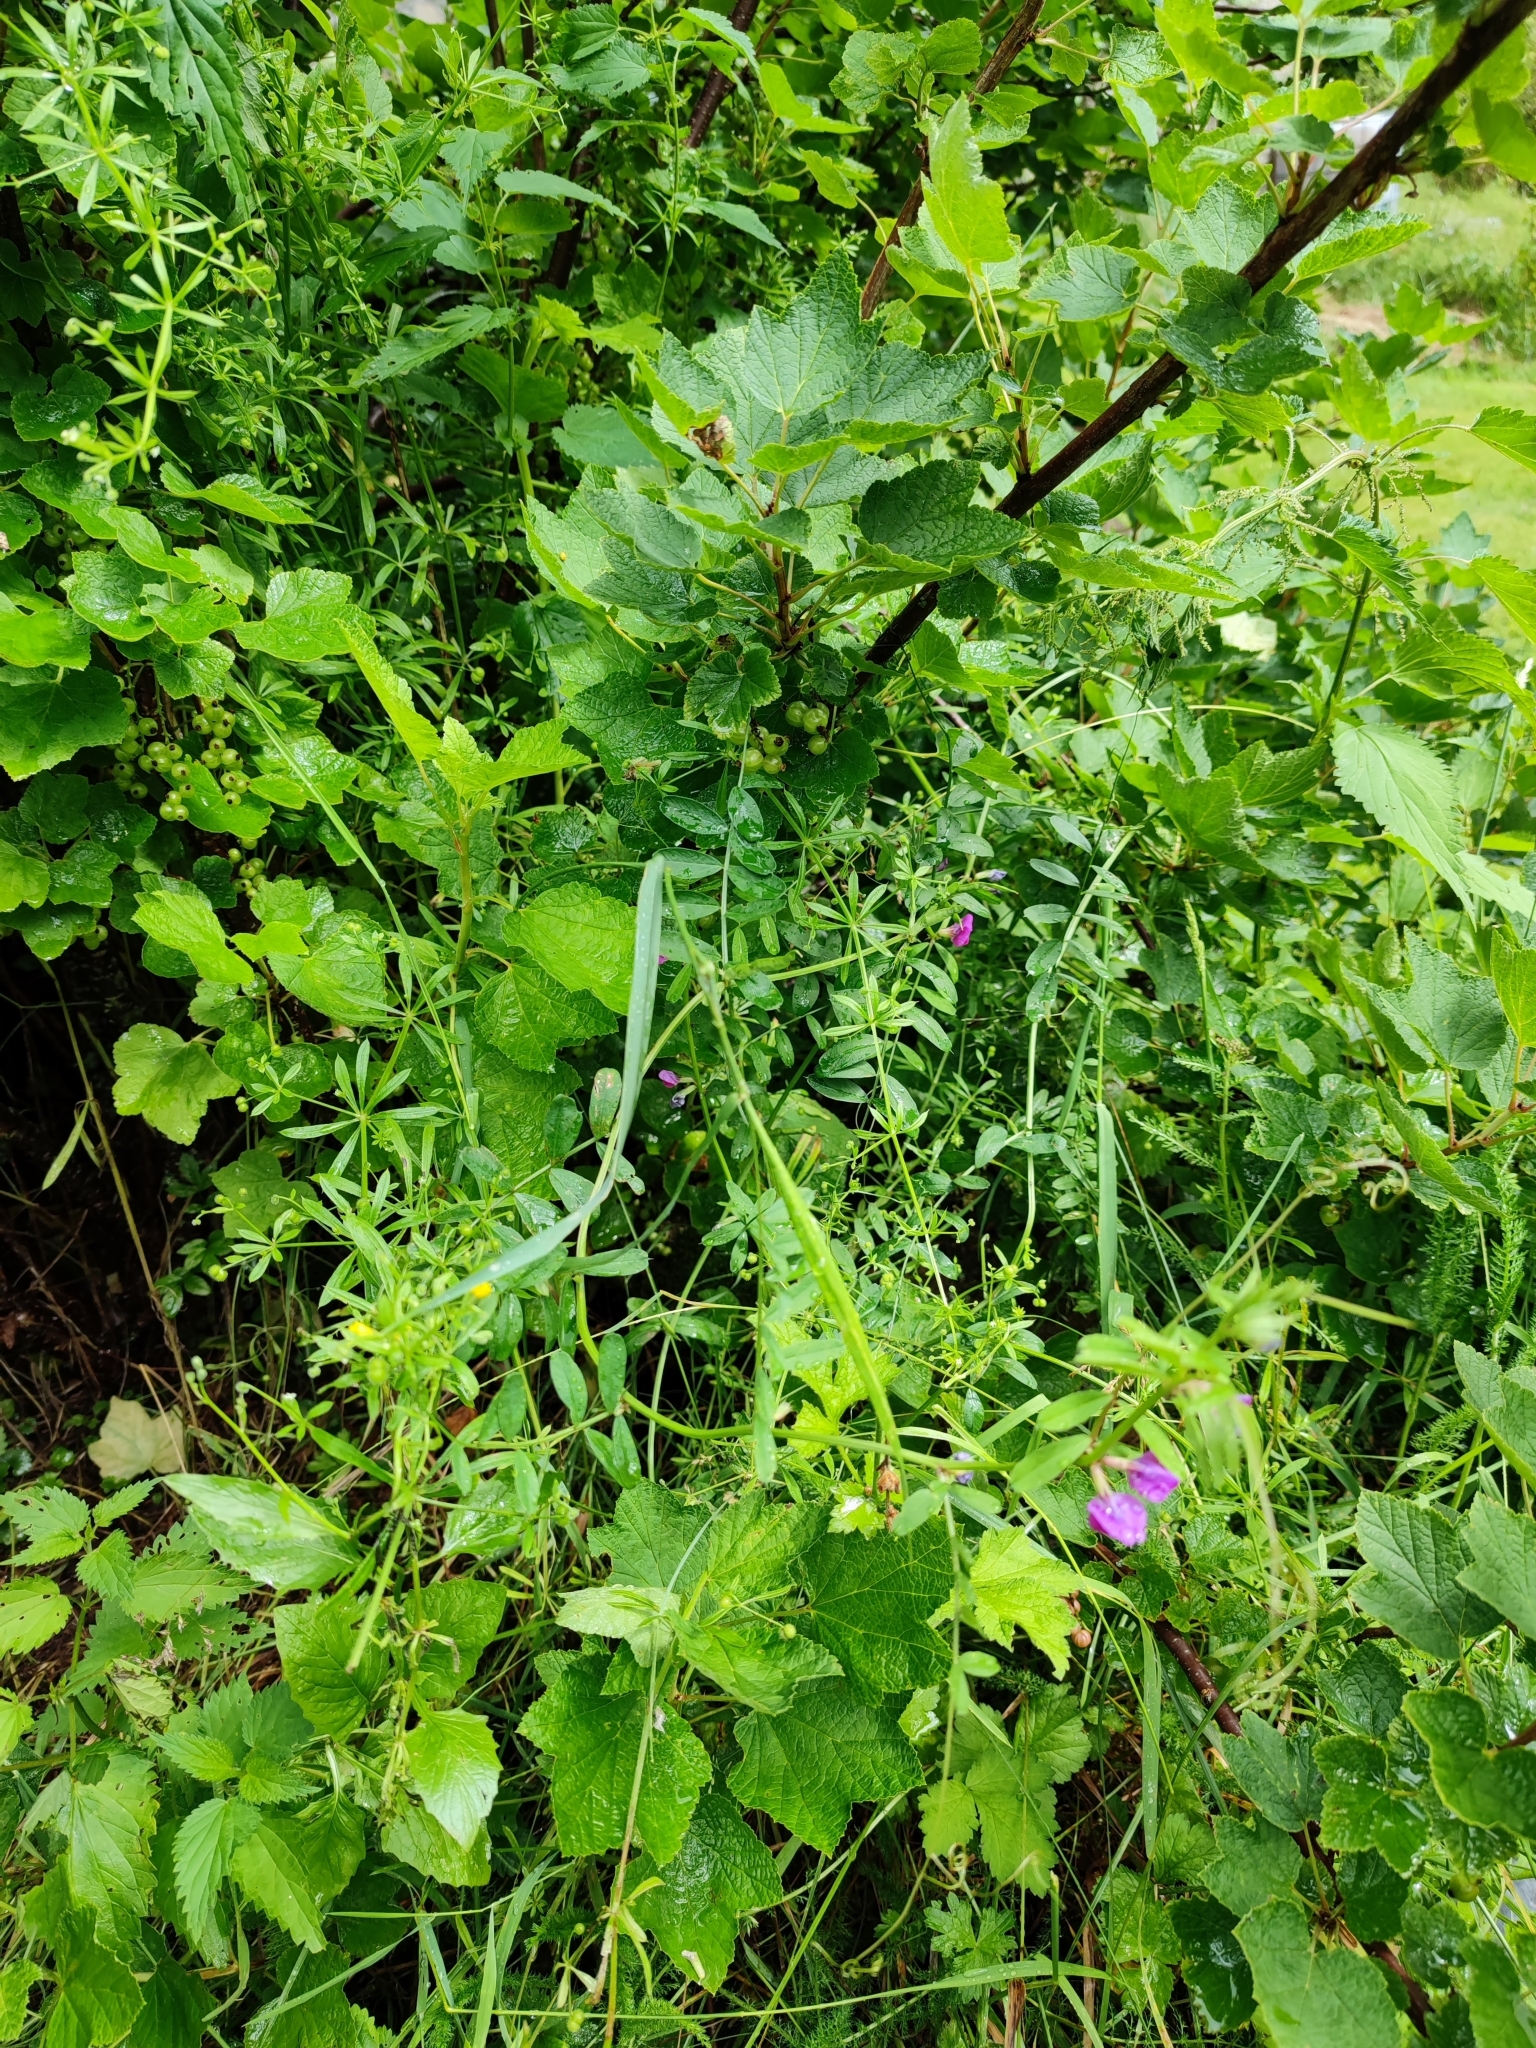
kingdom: Plantae
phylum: Tracheophyta
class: Magnoliopsida
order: Fabales
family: Fabaceae
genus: Vicia
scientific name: Vicia sativa
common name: Garden vetch
